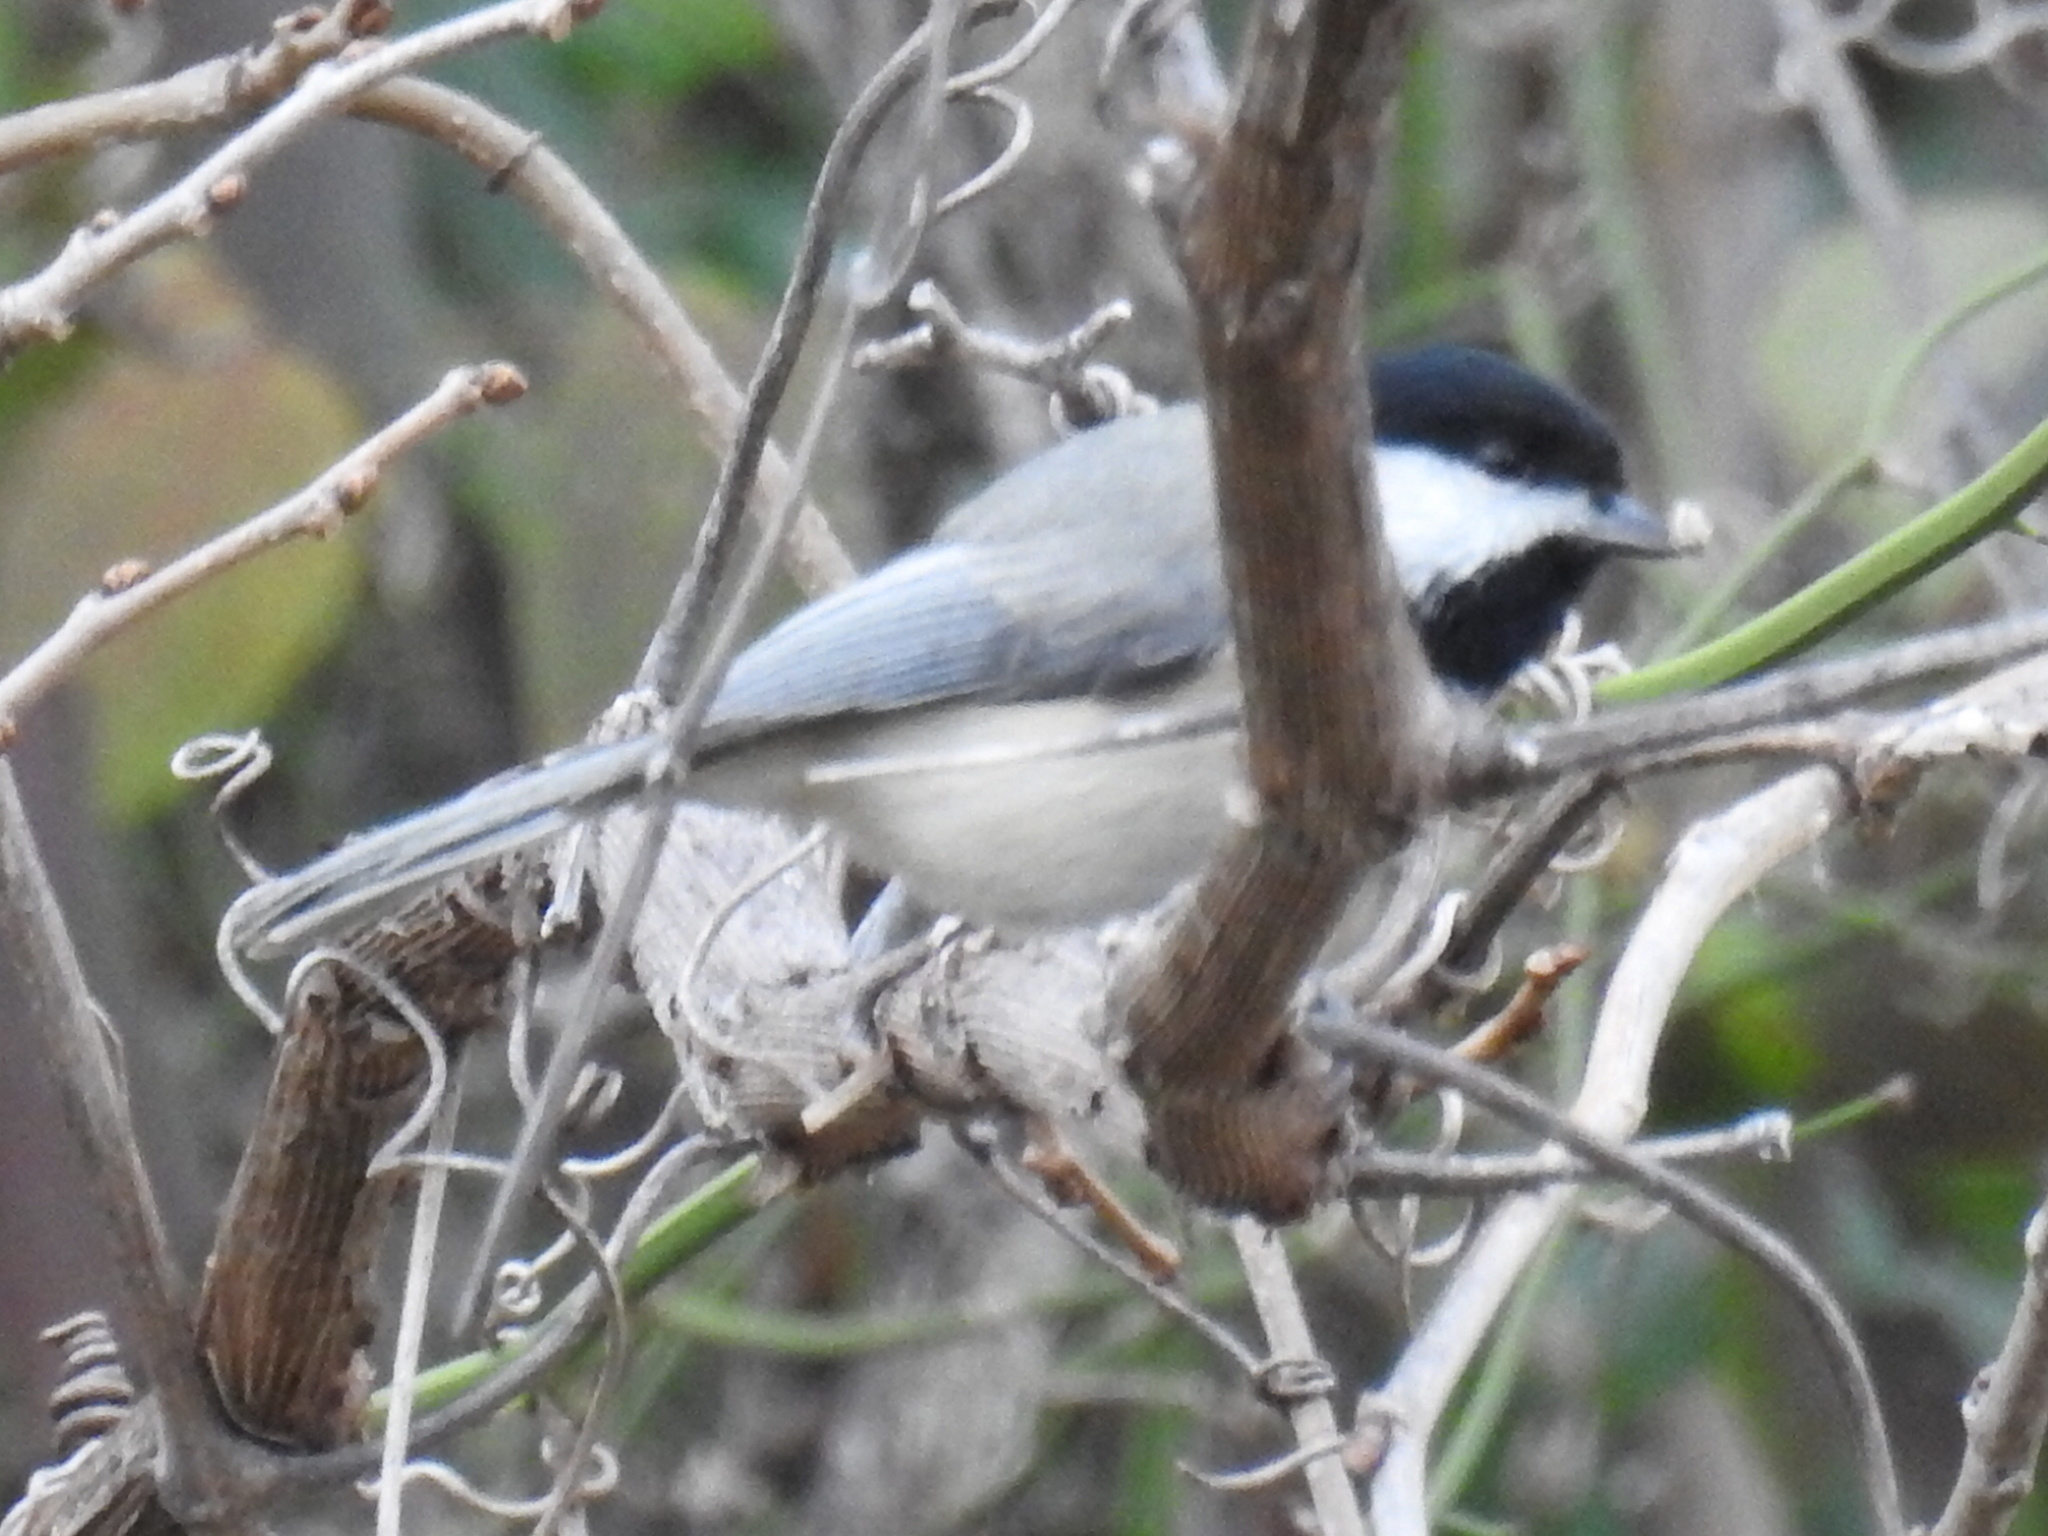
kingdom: Animalia
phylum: Chordata
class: Aves
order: Passeriformes
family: Paridae
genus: Poecile
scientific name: Poecile carolinensis
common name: Carolina chickadee
